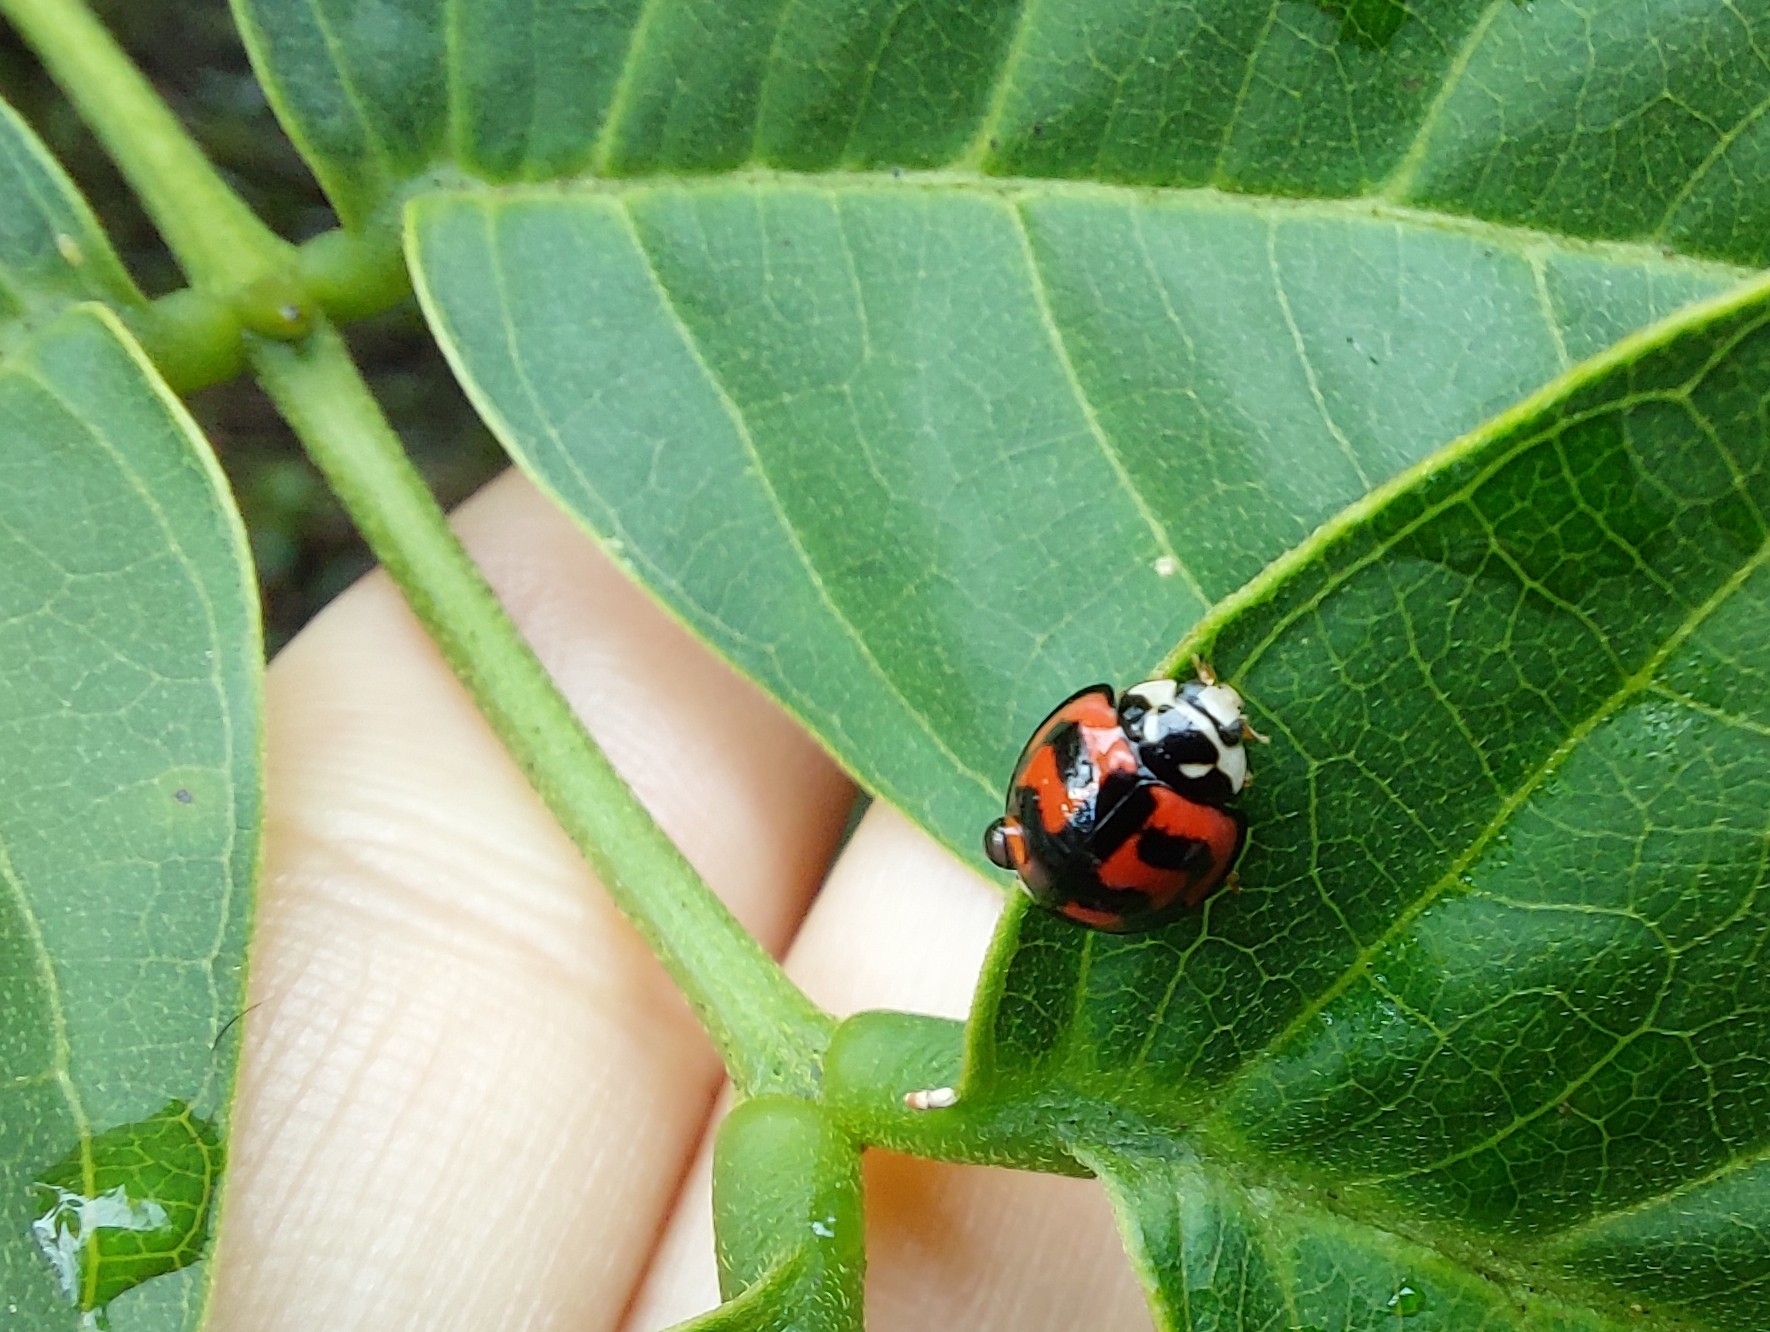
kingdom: Animalia
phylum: Arthropoda
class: Insecta
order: Coleoptera
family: Coccinellidae
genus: Cheilomenes
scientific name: Cheilomenes sexmaculata
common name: Ladybird beetle
